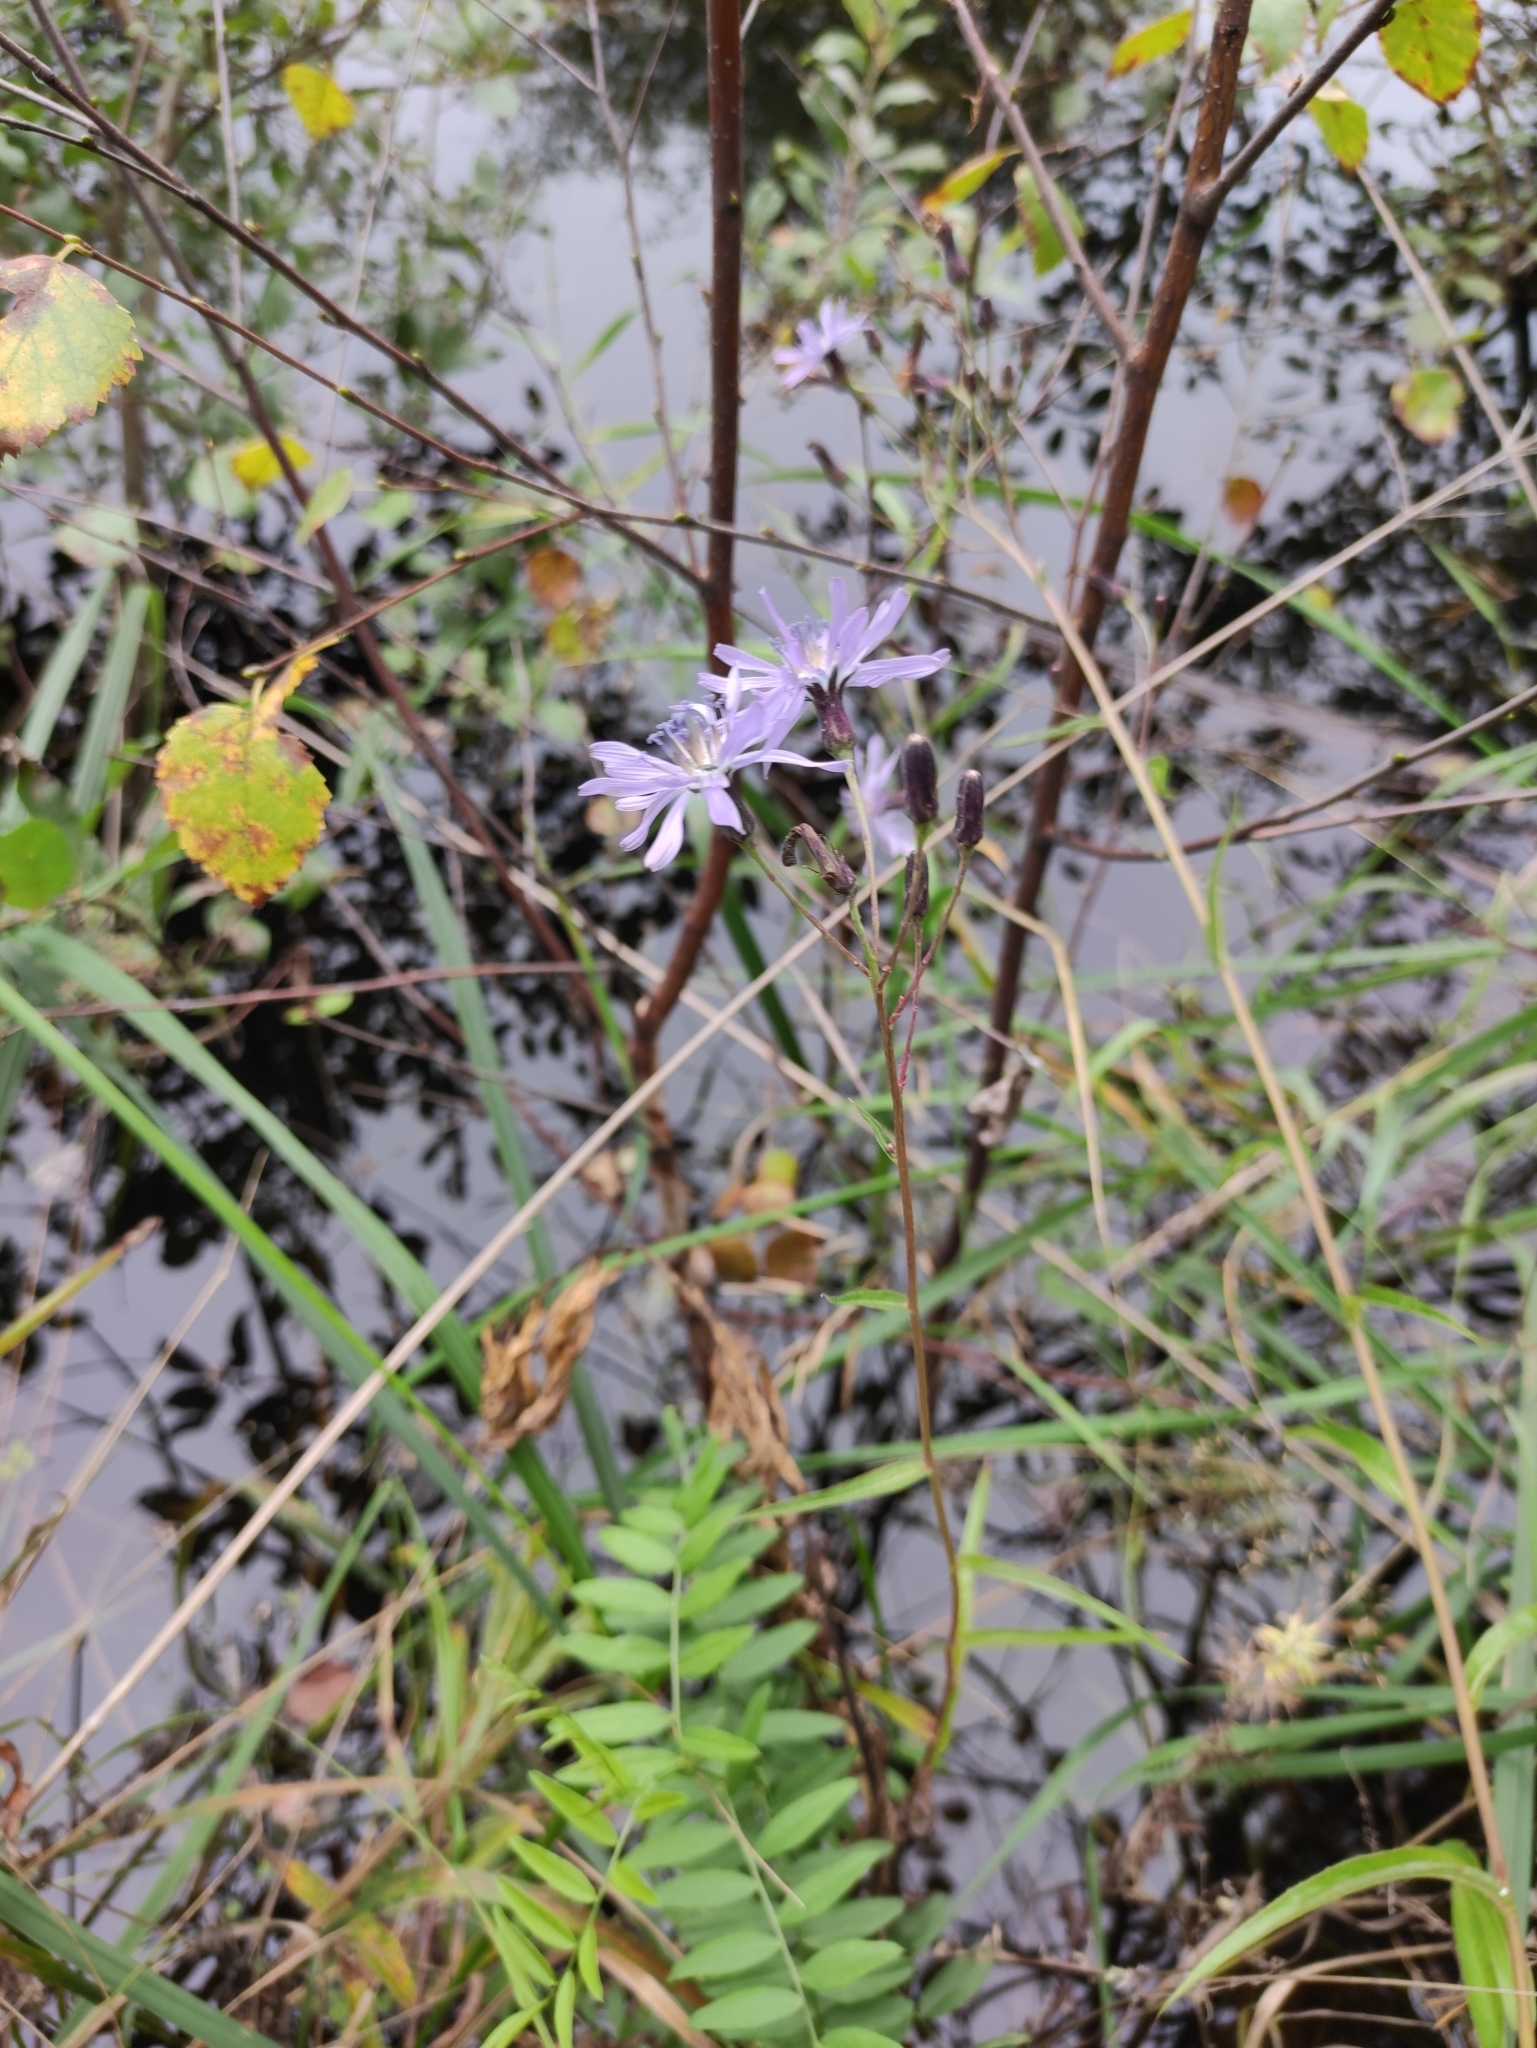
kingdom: Plantae
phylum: Tracheophyta
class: Magnoliopsida
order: Asterales
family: Asteraceae
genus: Lactuca
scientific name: Lactuca sibirica
